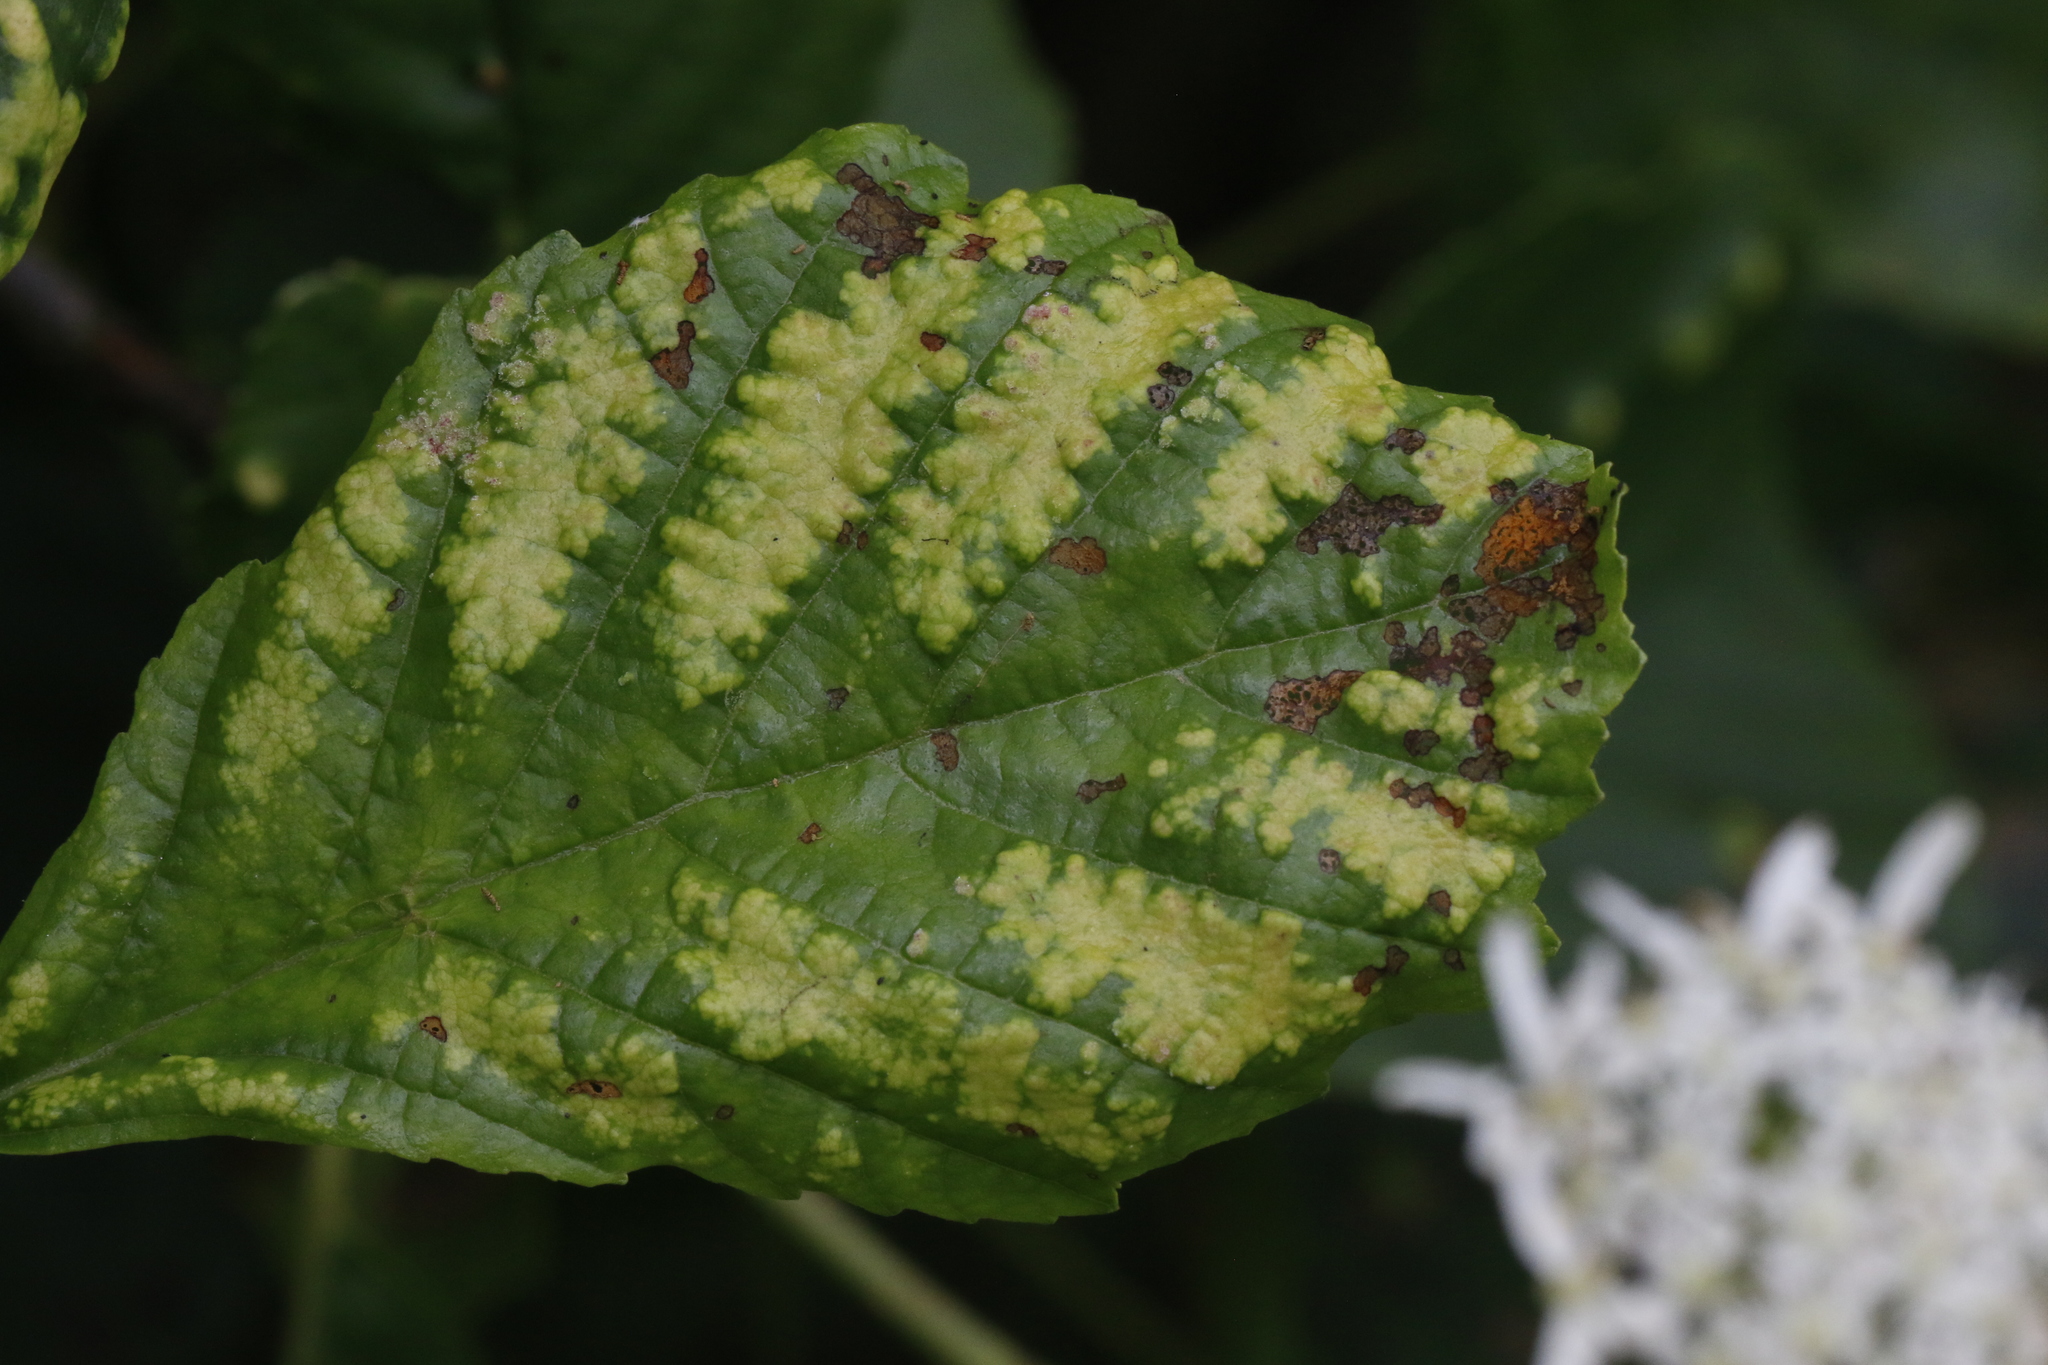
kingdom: Animalia
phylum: Arthropoda
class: Arachnida
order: Trombidiformes
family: Eriophyidae
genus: Acalitus
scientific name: Acalitus brevitarsus
